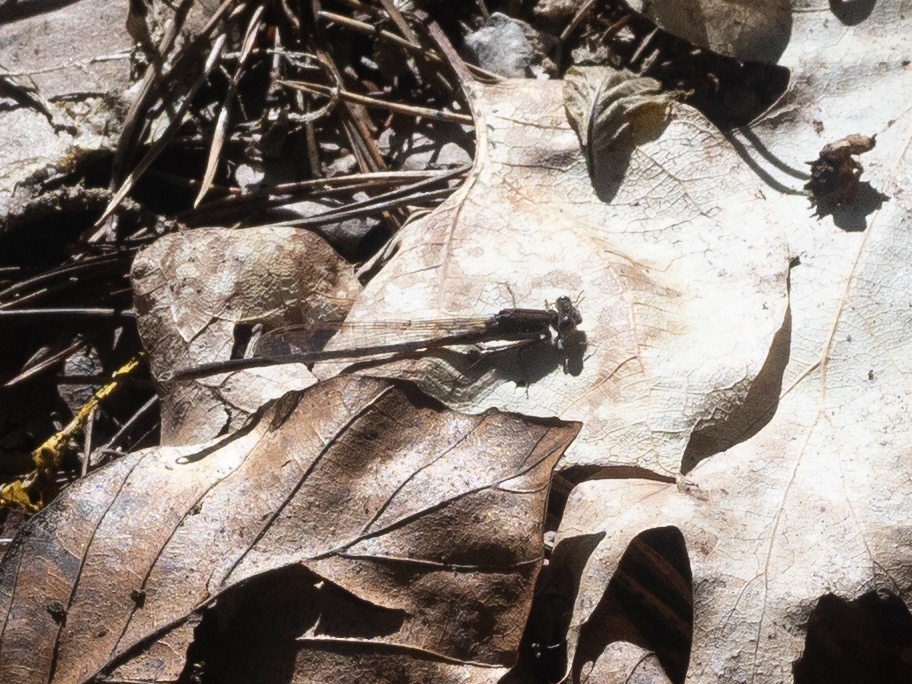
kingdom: Animalia
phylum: Arthropoda
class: Insecta
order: Odonata
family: Lestidae
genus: Sympecma
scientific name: Sympecma fusca
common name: Common winter damsel
